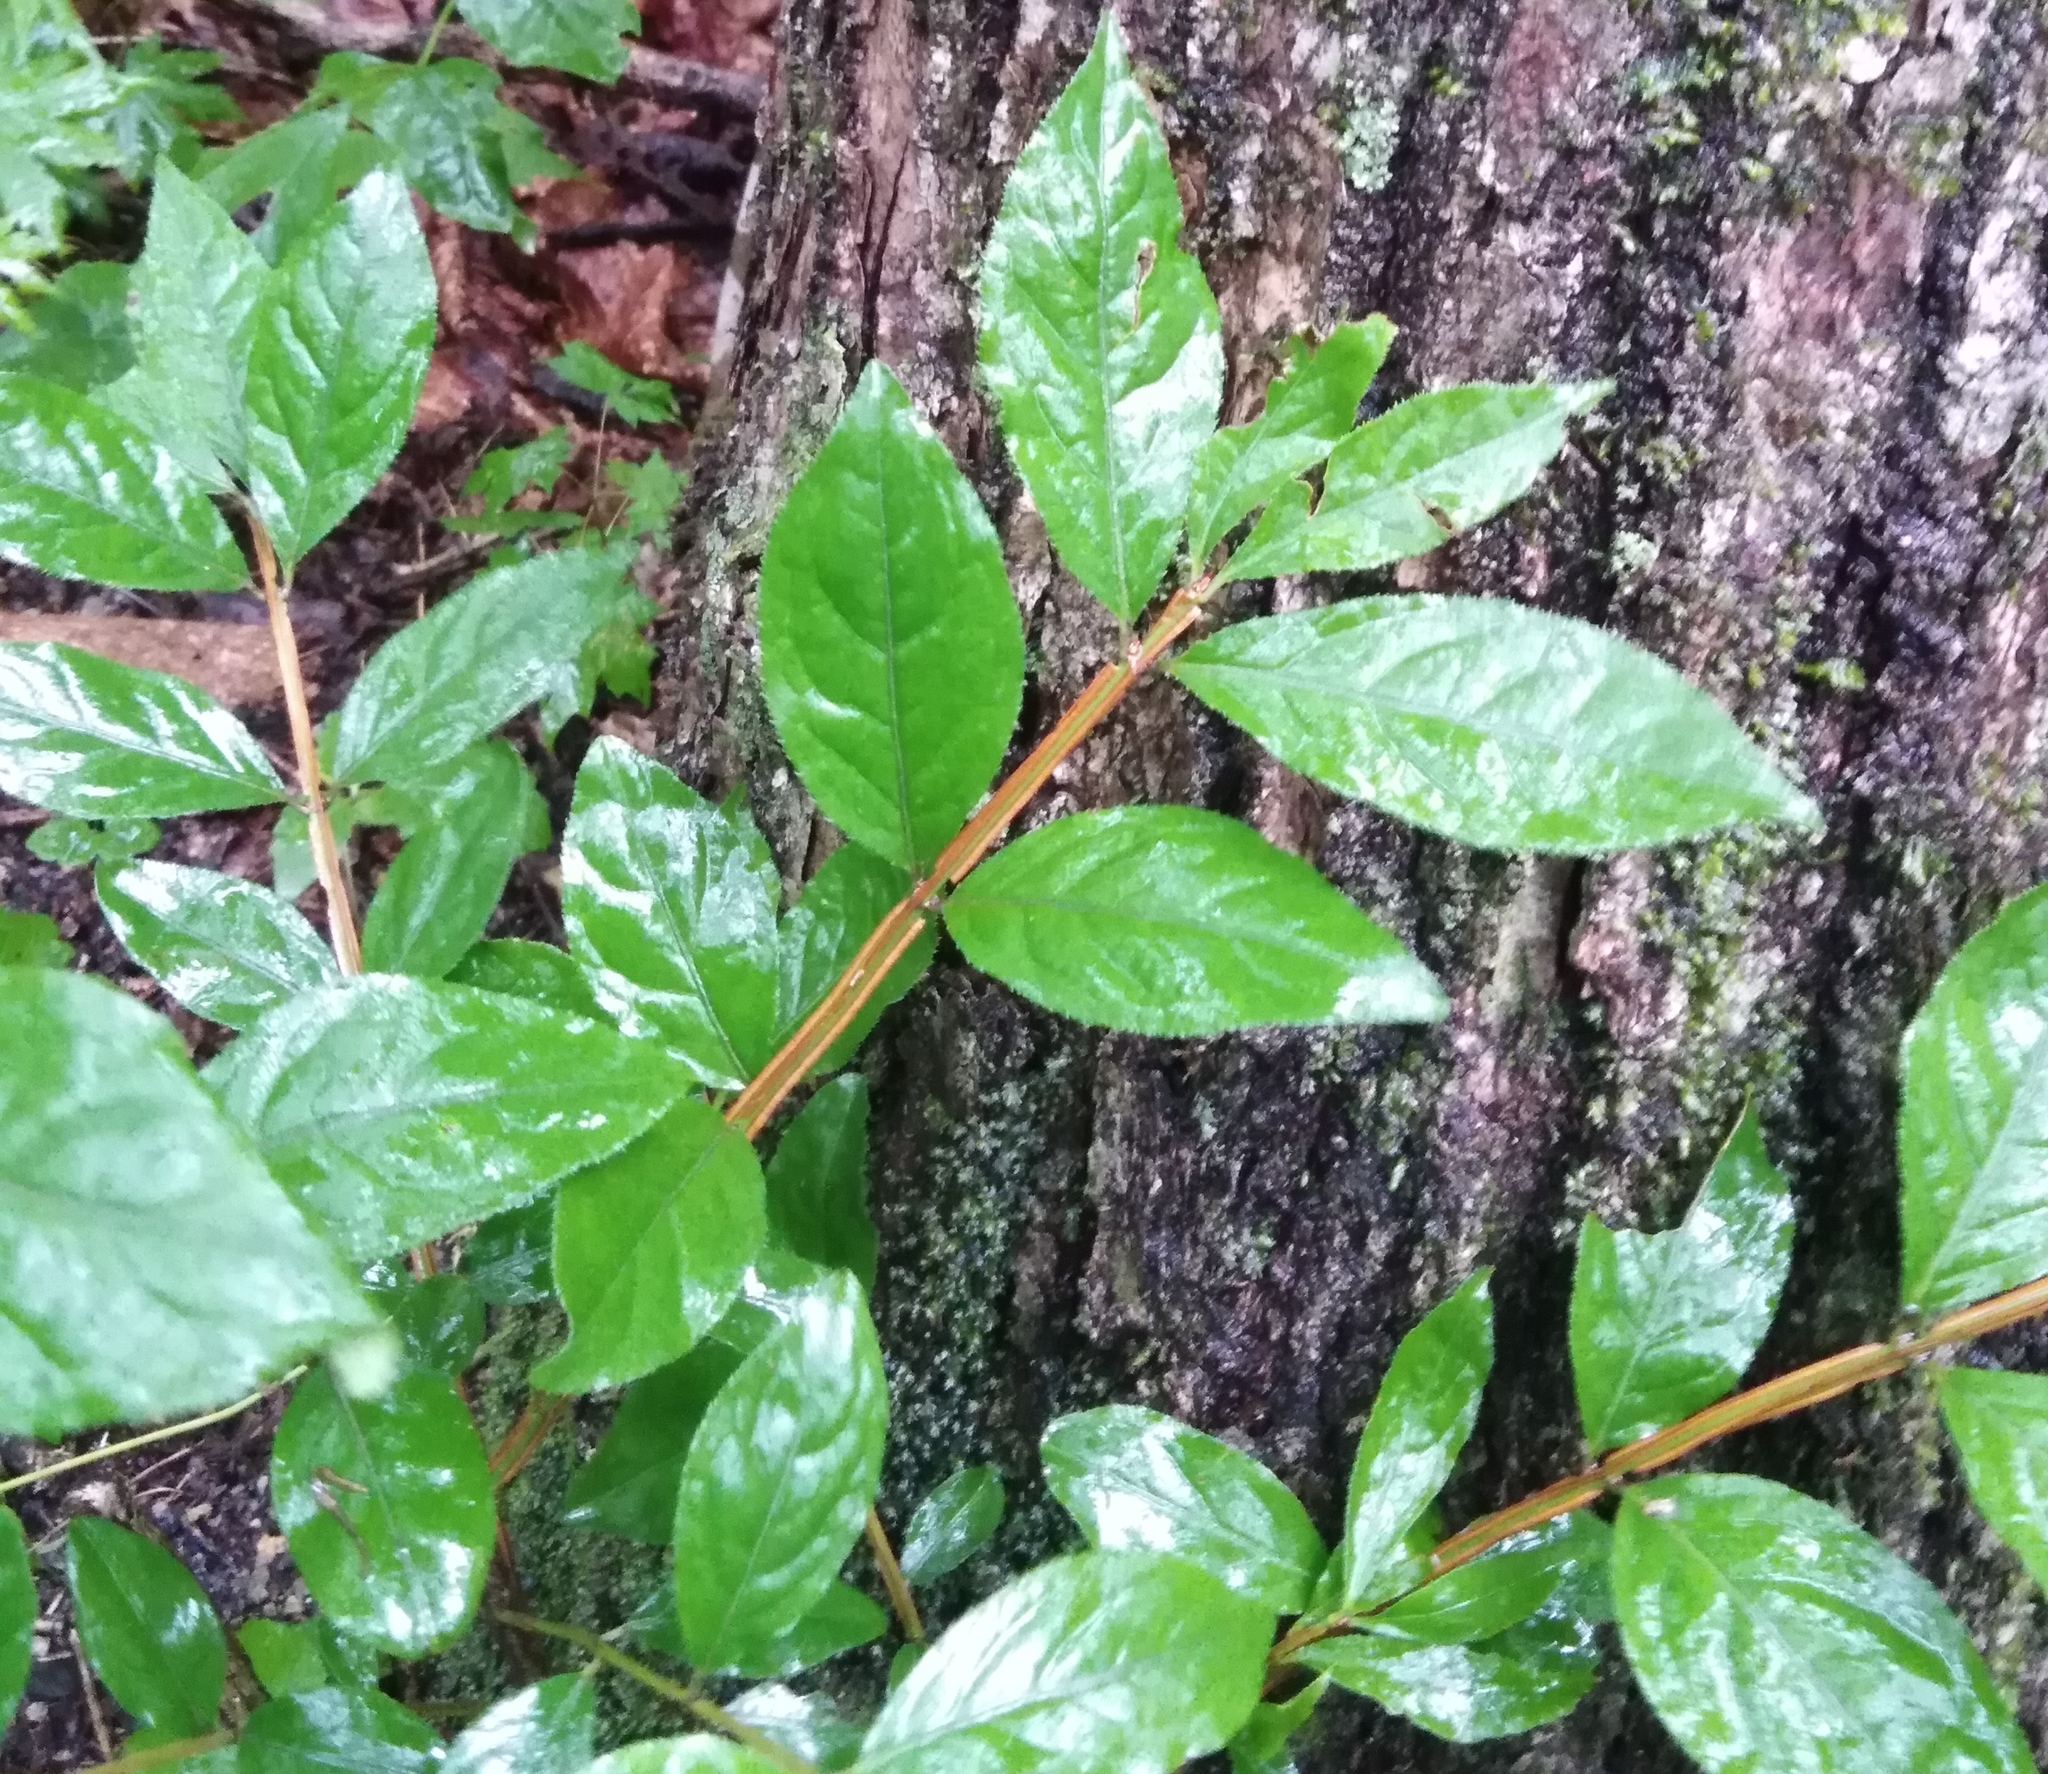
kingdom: Plantae
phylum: Tracheophyta
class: Magnoliopsida
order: Celastrales
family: Celastraceae
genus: Euonymus
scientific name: Euonymus alatus
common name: Winged euonymus
